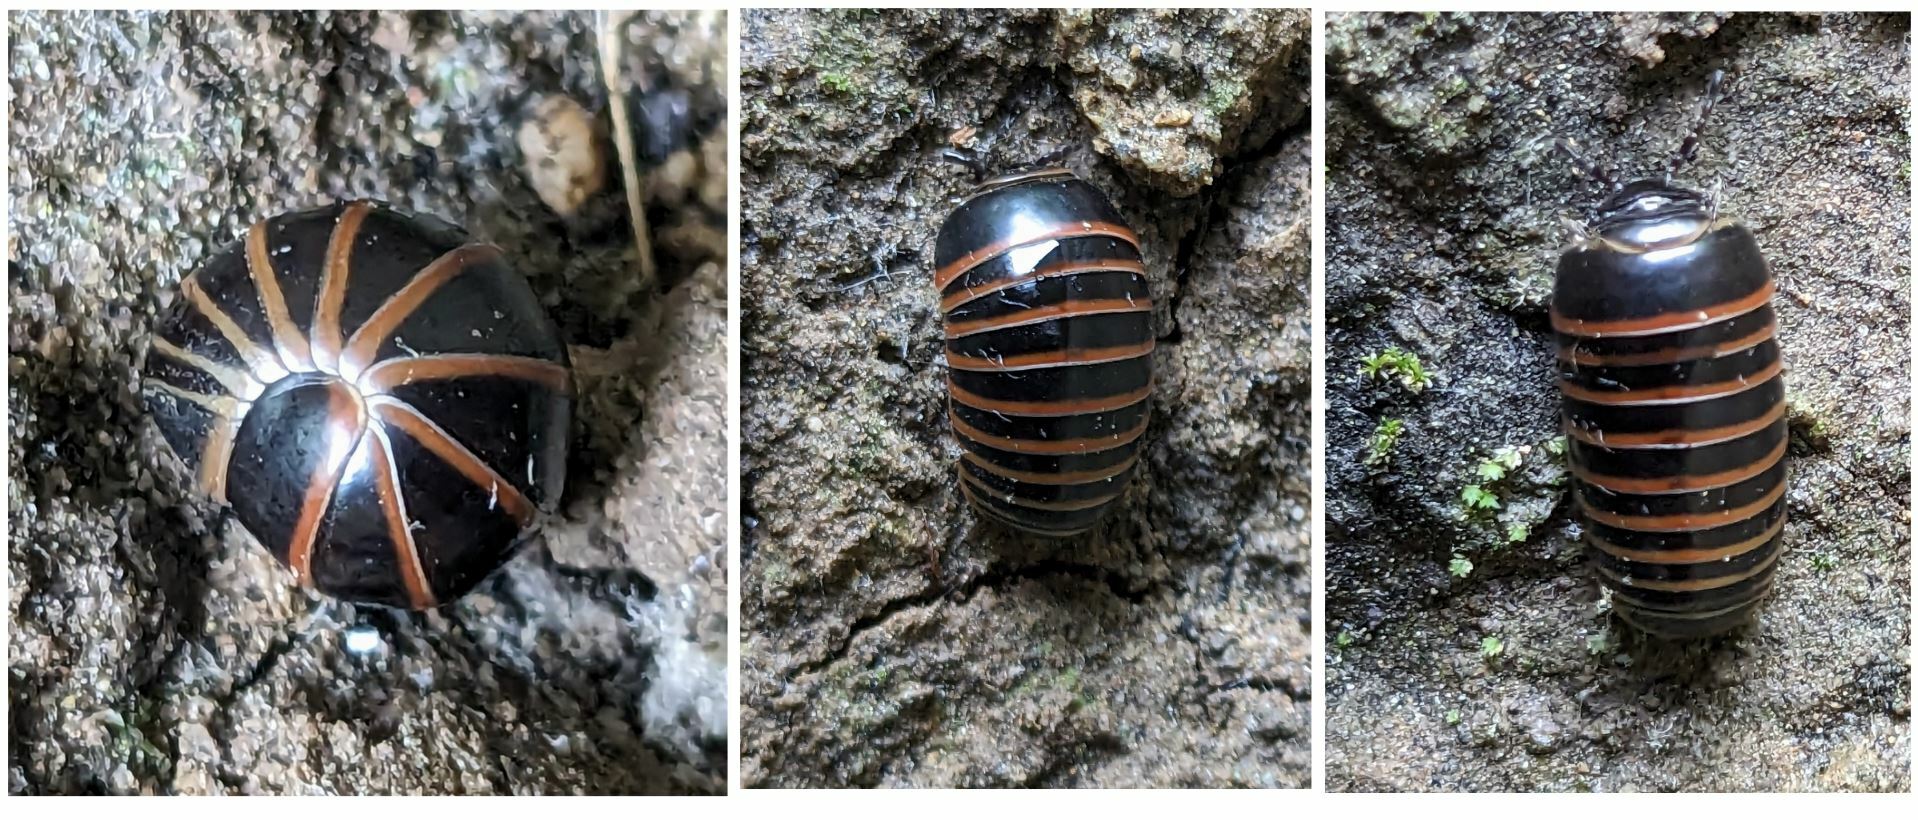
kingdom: Animalia
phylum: Arthropoda
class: Diplopoda
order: Glomerida
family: Glomeridae
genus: Glomeris
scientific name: Glomeris marginata
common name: Bordered pill millipede
